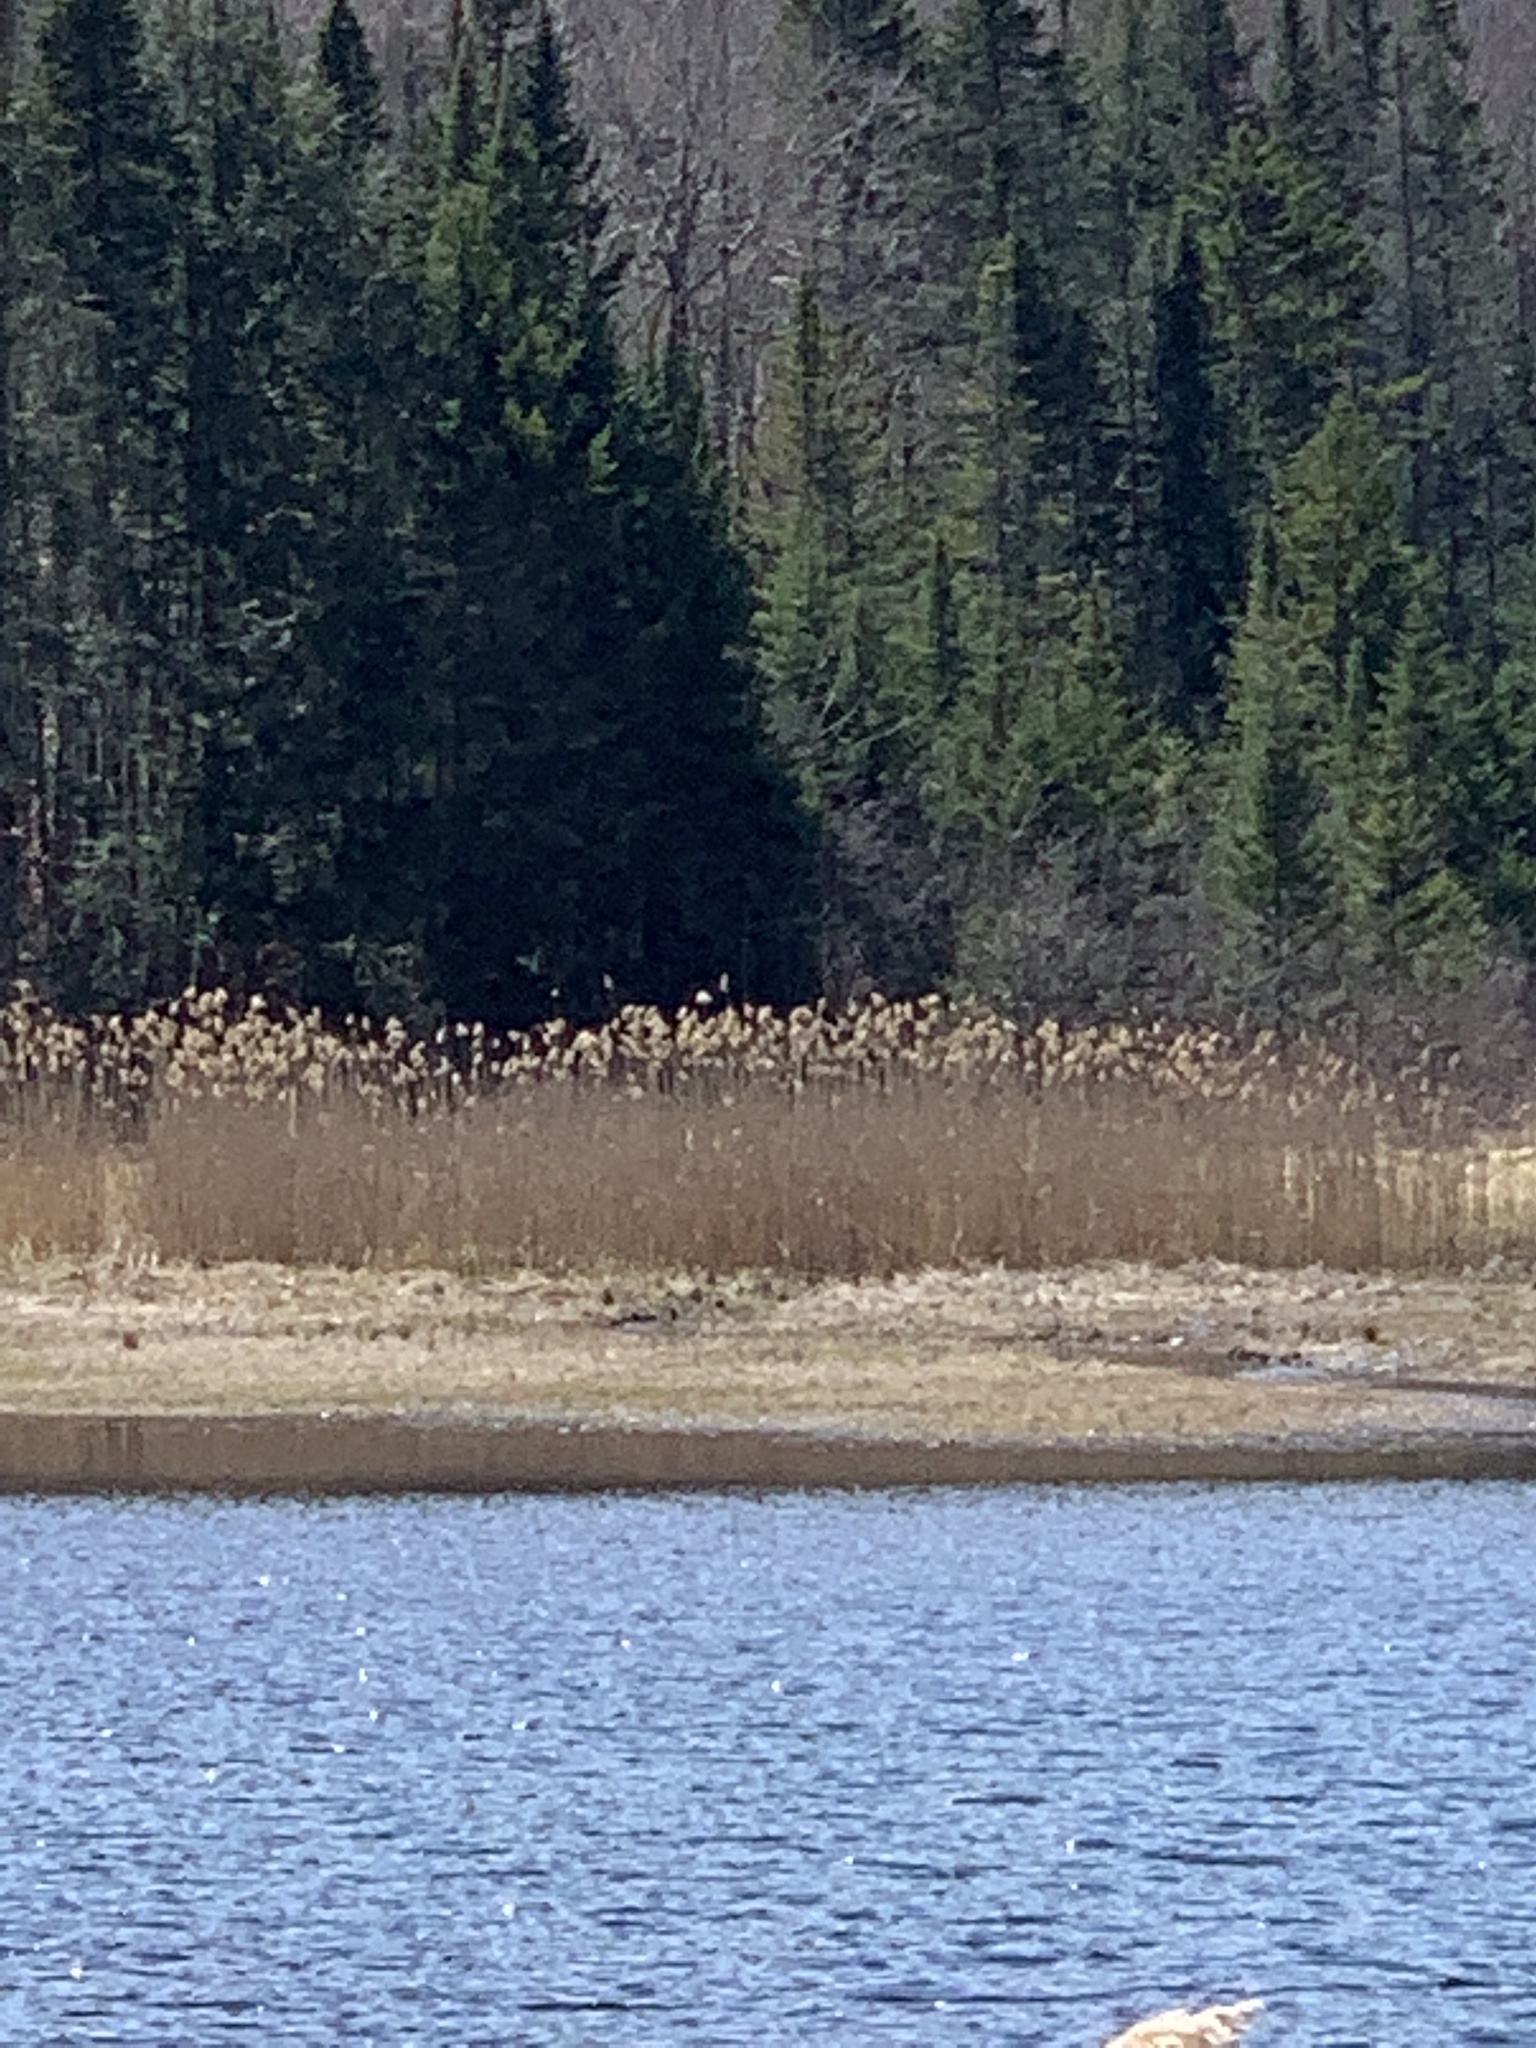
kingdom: Plantae
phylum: Tracheophyta
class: Liliopsida
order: Poales
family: Poaceae
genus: Phragmites
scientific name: Phragmites australis
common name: Common reed
